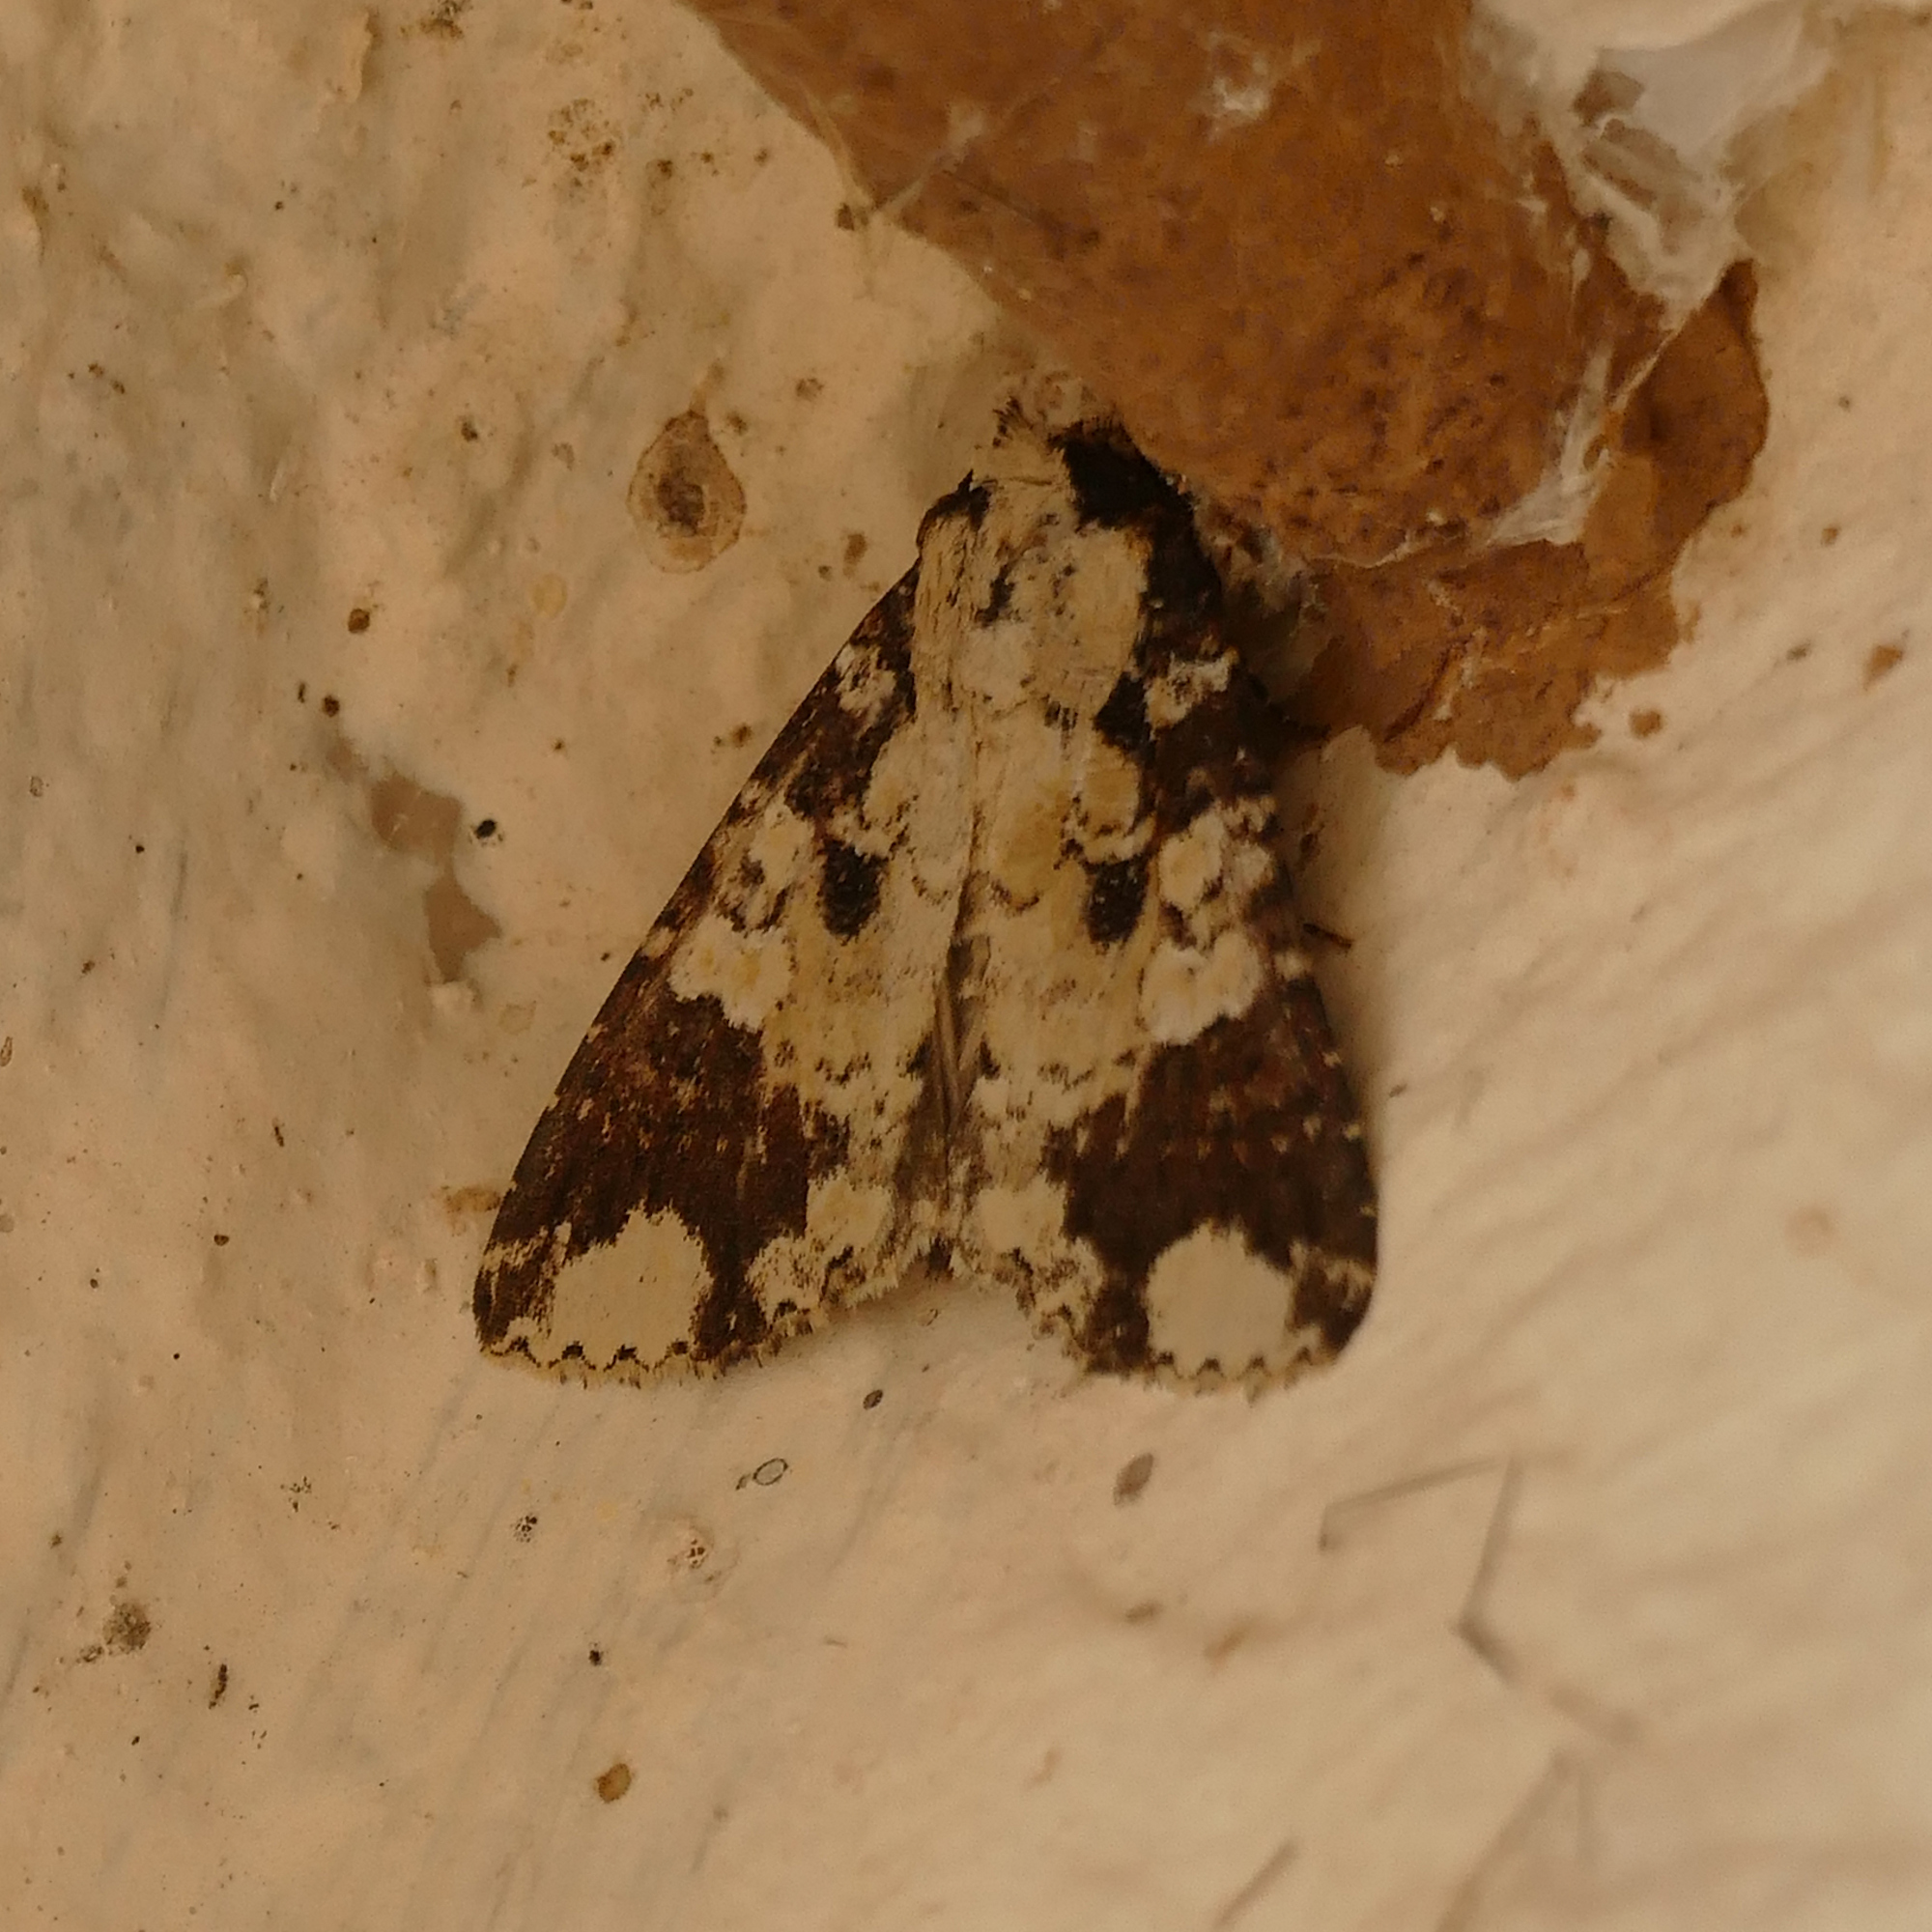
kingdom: Animalia
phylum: Arthropoda
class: Insecta
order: Lepidoptera
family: Noctuidae
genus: Condica
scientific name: Condica confederata
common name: The confederate
